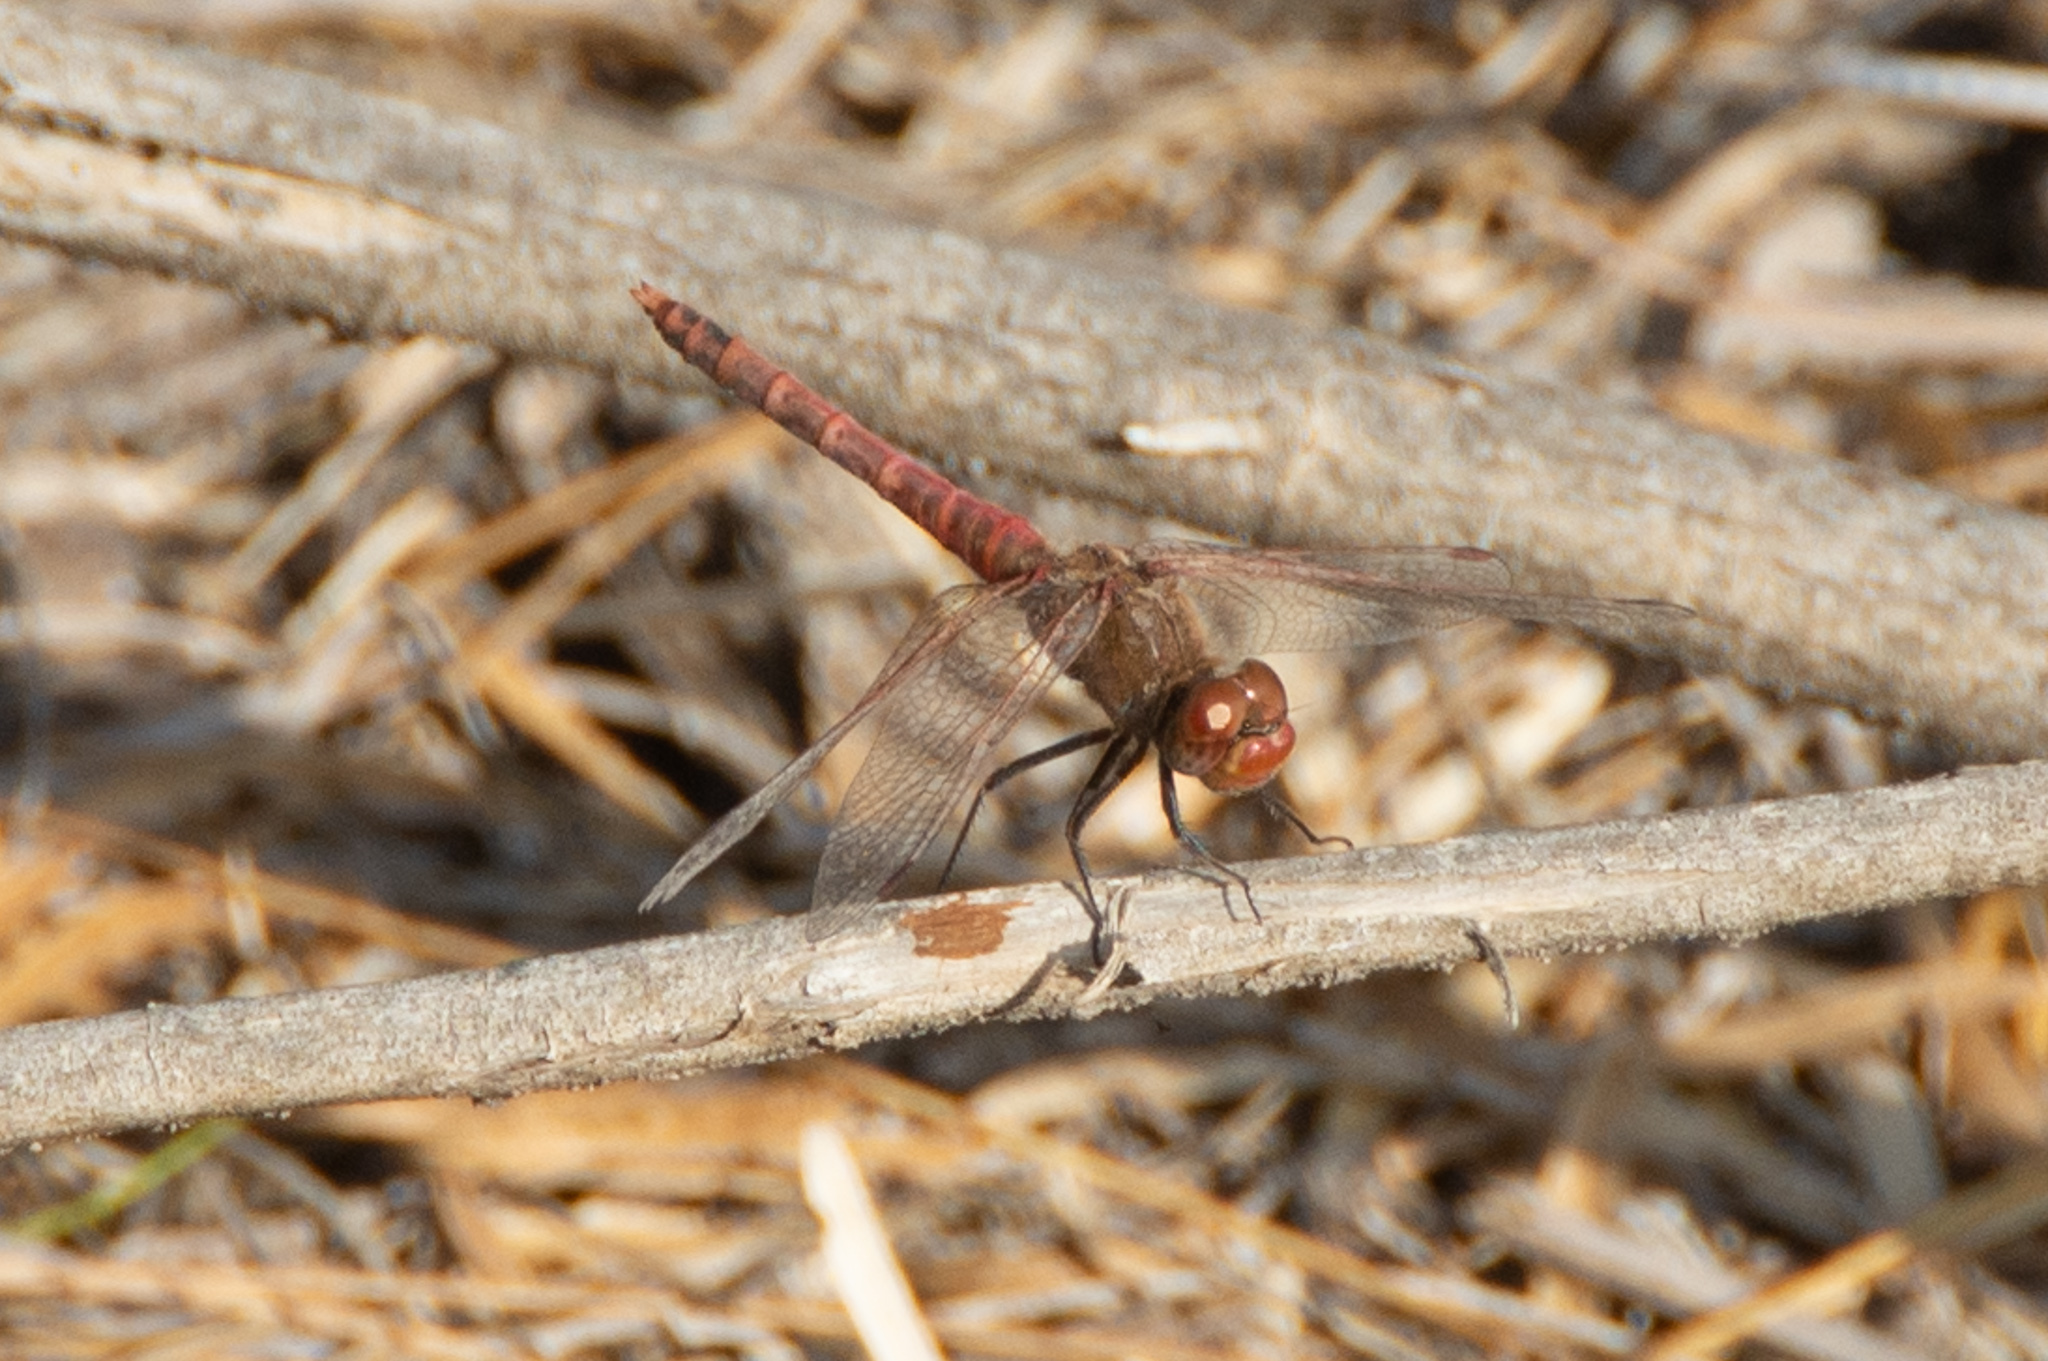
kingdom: Animalia
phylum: Arthropoda
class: Insecta
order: Odonata
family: Libellulidae
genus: Sympetrum
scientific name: Sympetrum corruptum
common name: Variegated meadowhawk
